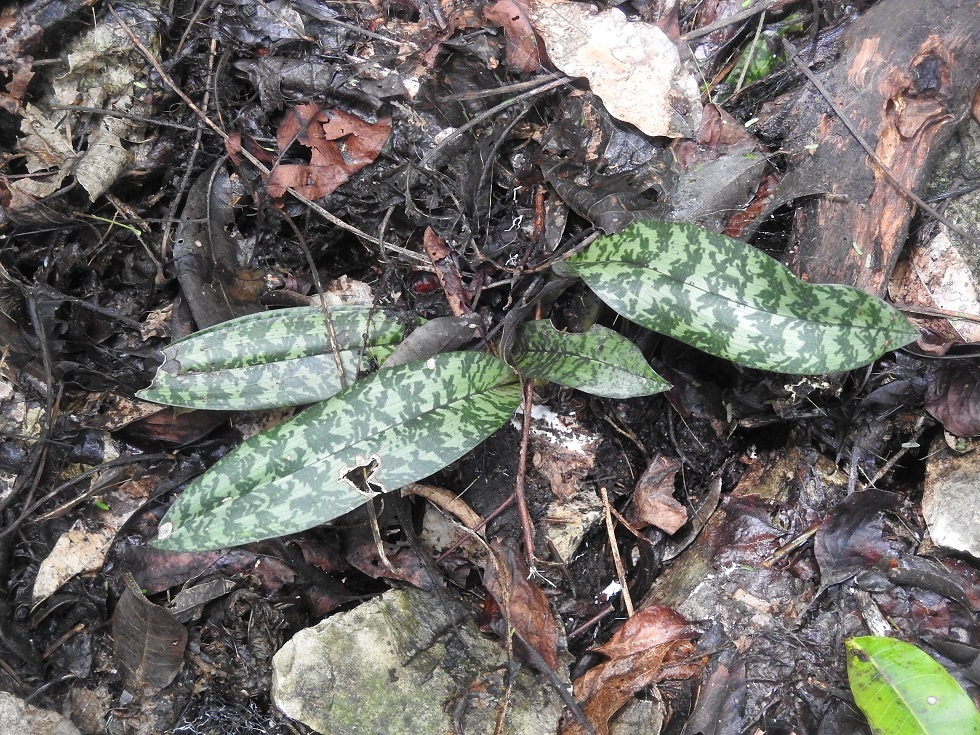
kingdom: Plantae
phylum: Tracheophyta
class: Liliopsida
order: Asparagales
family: Orchidaceae
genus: Eulophia
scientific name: Eulophia maculata
